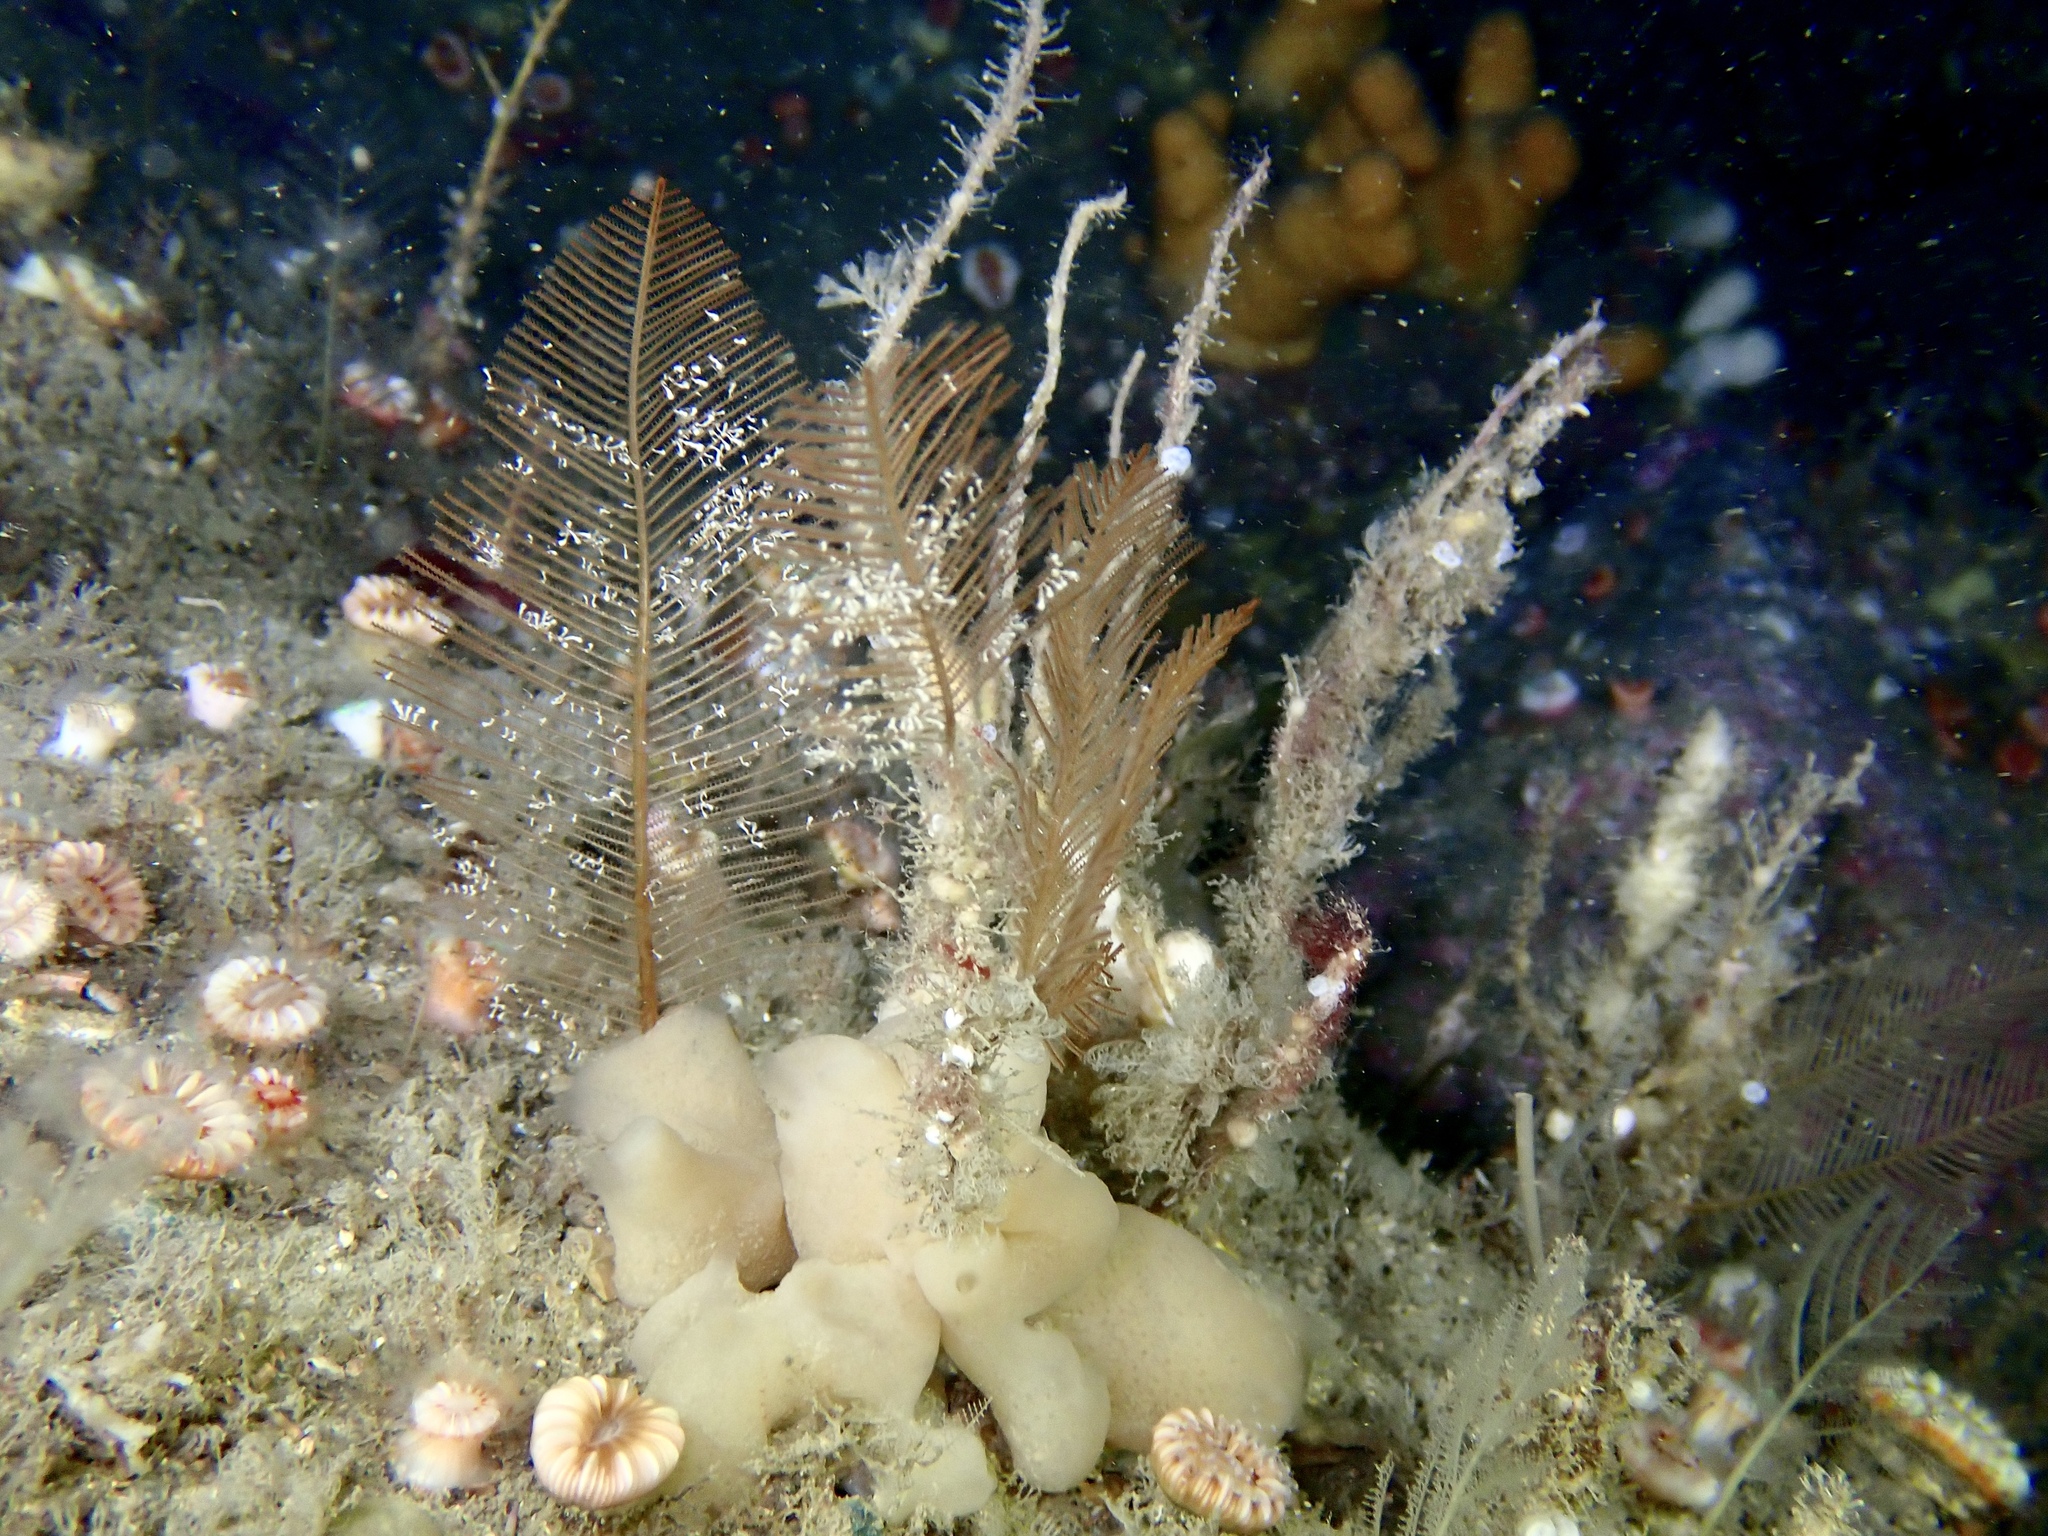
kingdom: Animalia
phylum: Cnidaria
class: Hydrozoa
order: Leptothecata
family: Sertulariidae
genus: Diphasia
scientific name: Diphasia alata
